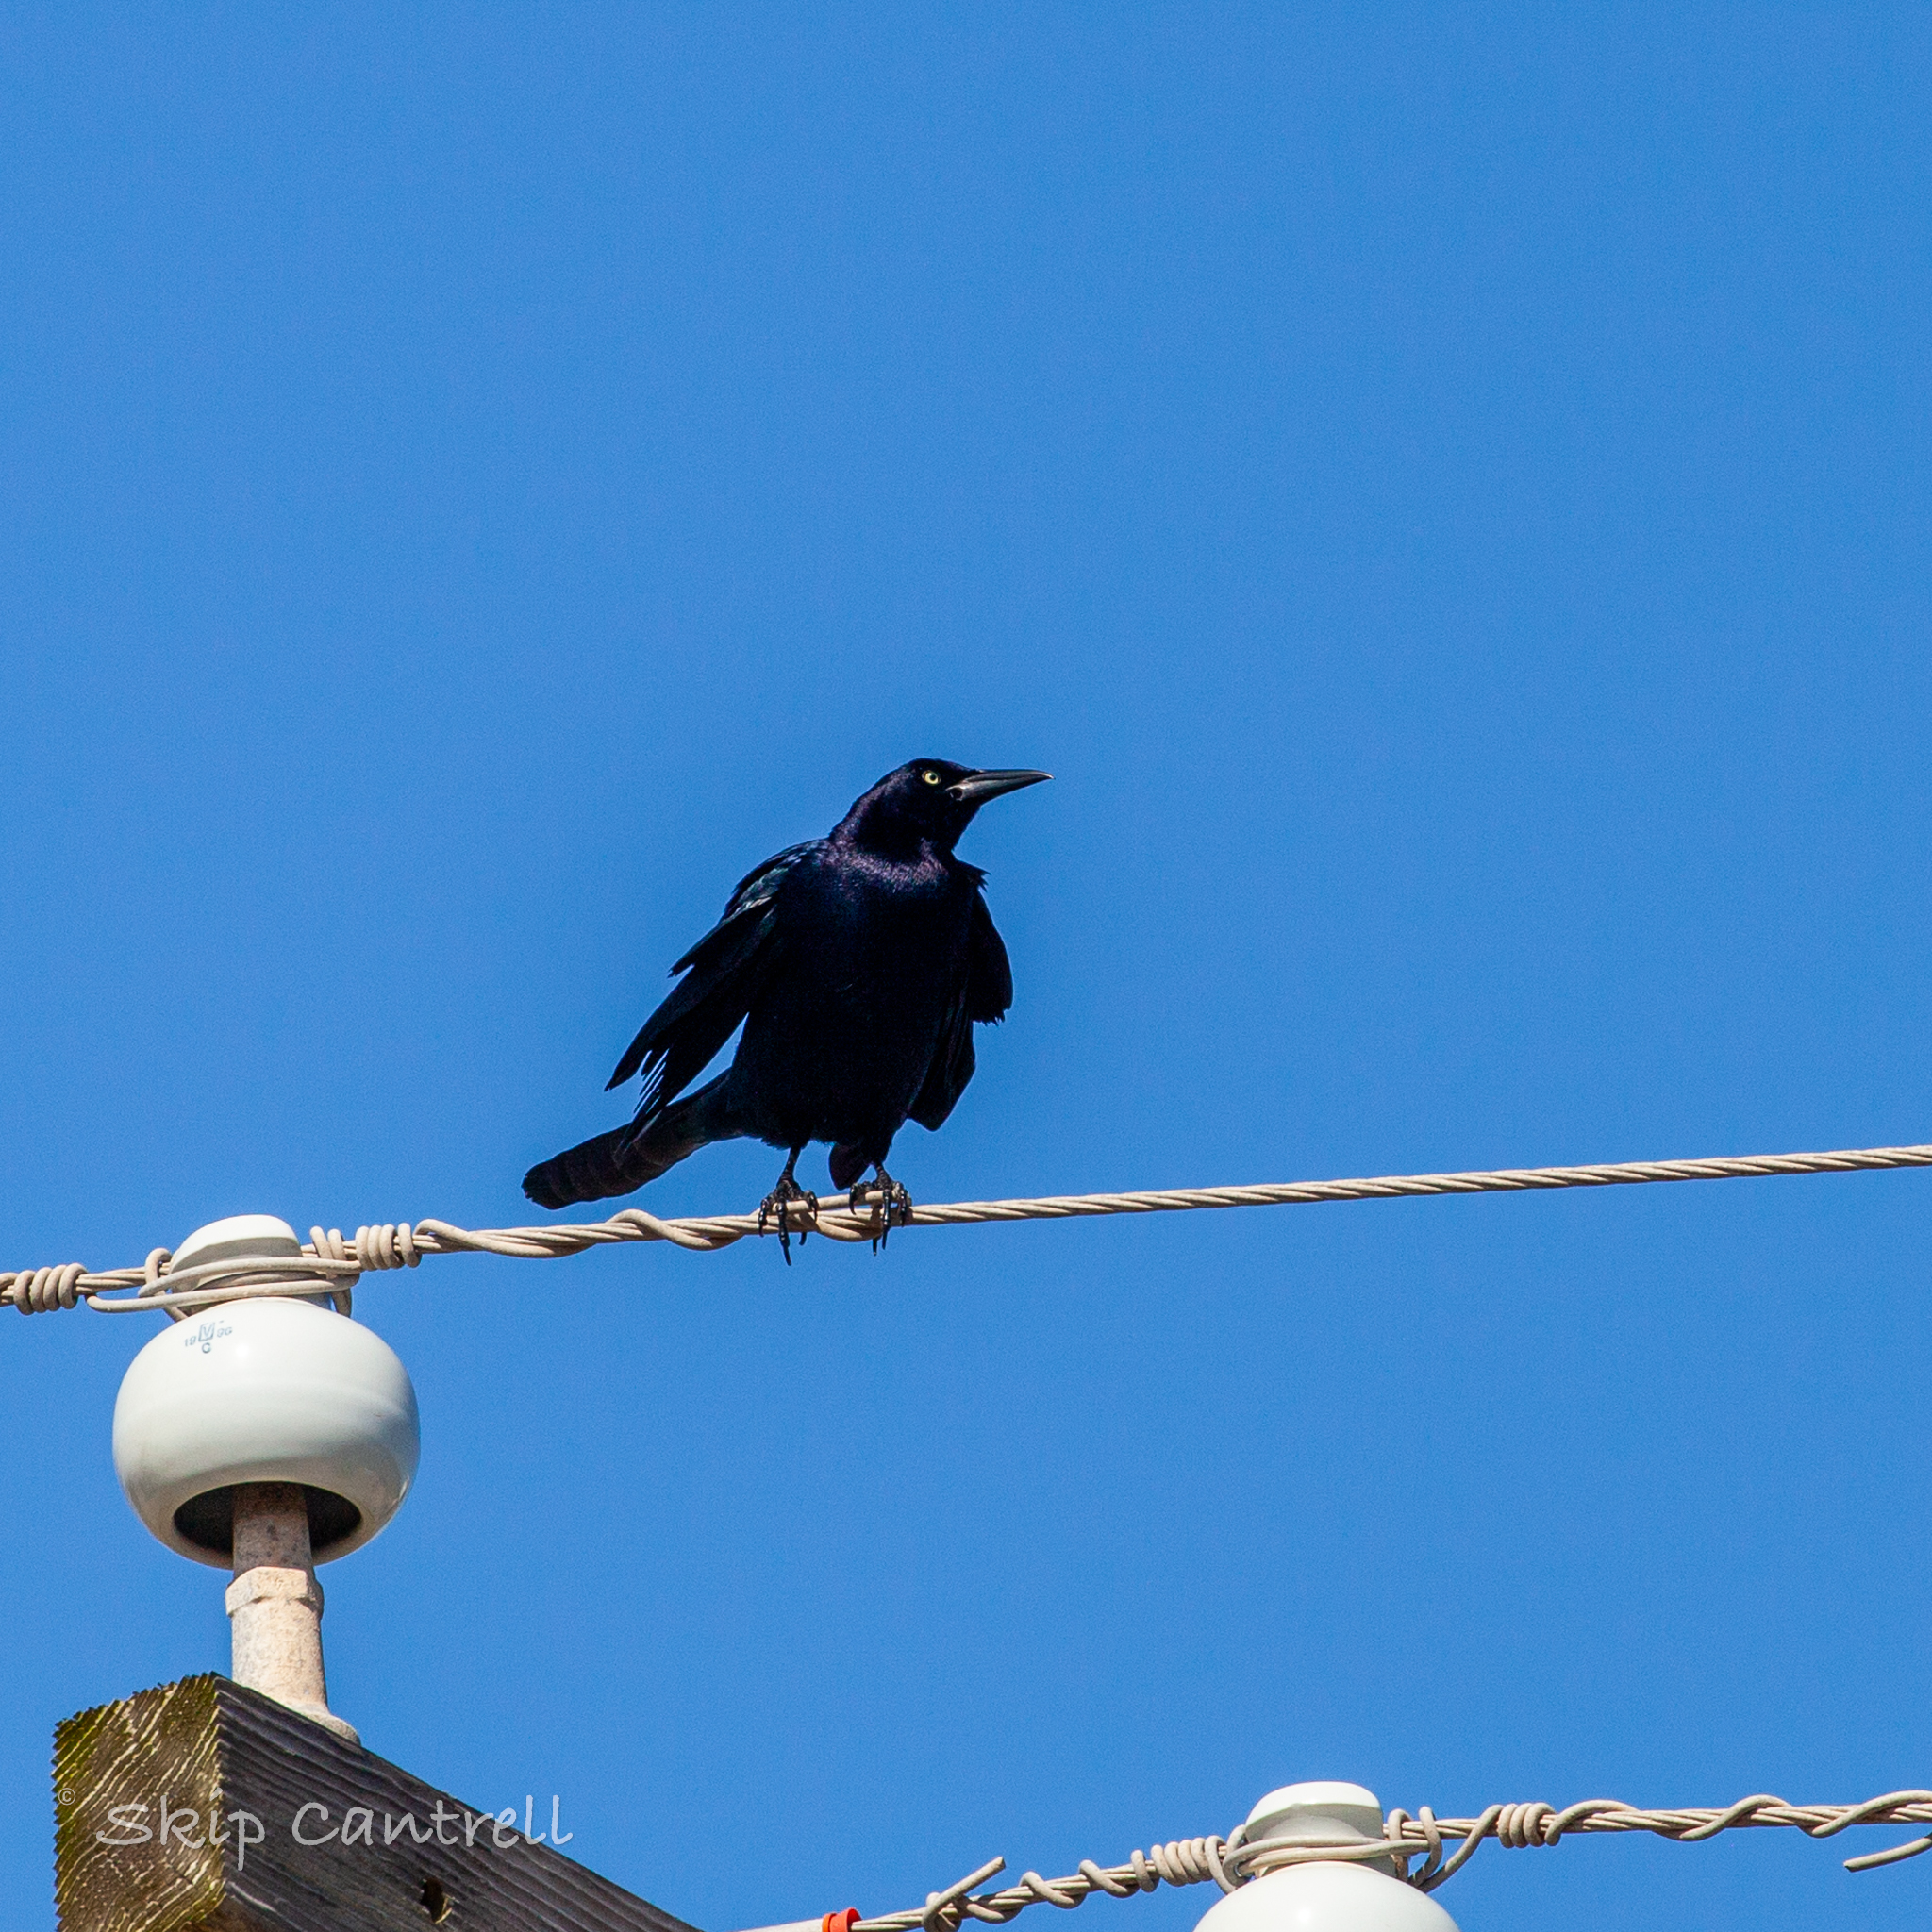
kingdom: Animalia
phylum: Chordata
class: Aves
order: Passeriformes
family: Icteridae
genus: Quiscalus
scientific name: Quiscalus mexicanus
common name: Great-tailed grackle
